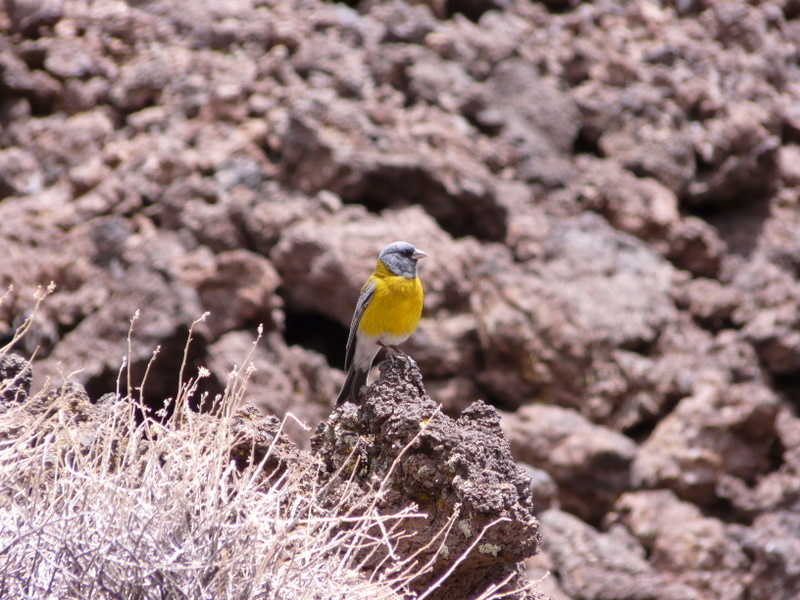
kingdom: Animalia
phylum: Chordata
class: Aves
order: Passeriformes
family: Thraupidae
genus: Phrygilus
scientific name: Phrygilus gayi
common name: Grey-hooded sierra finch
